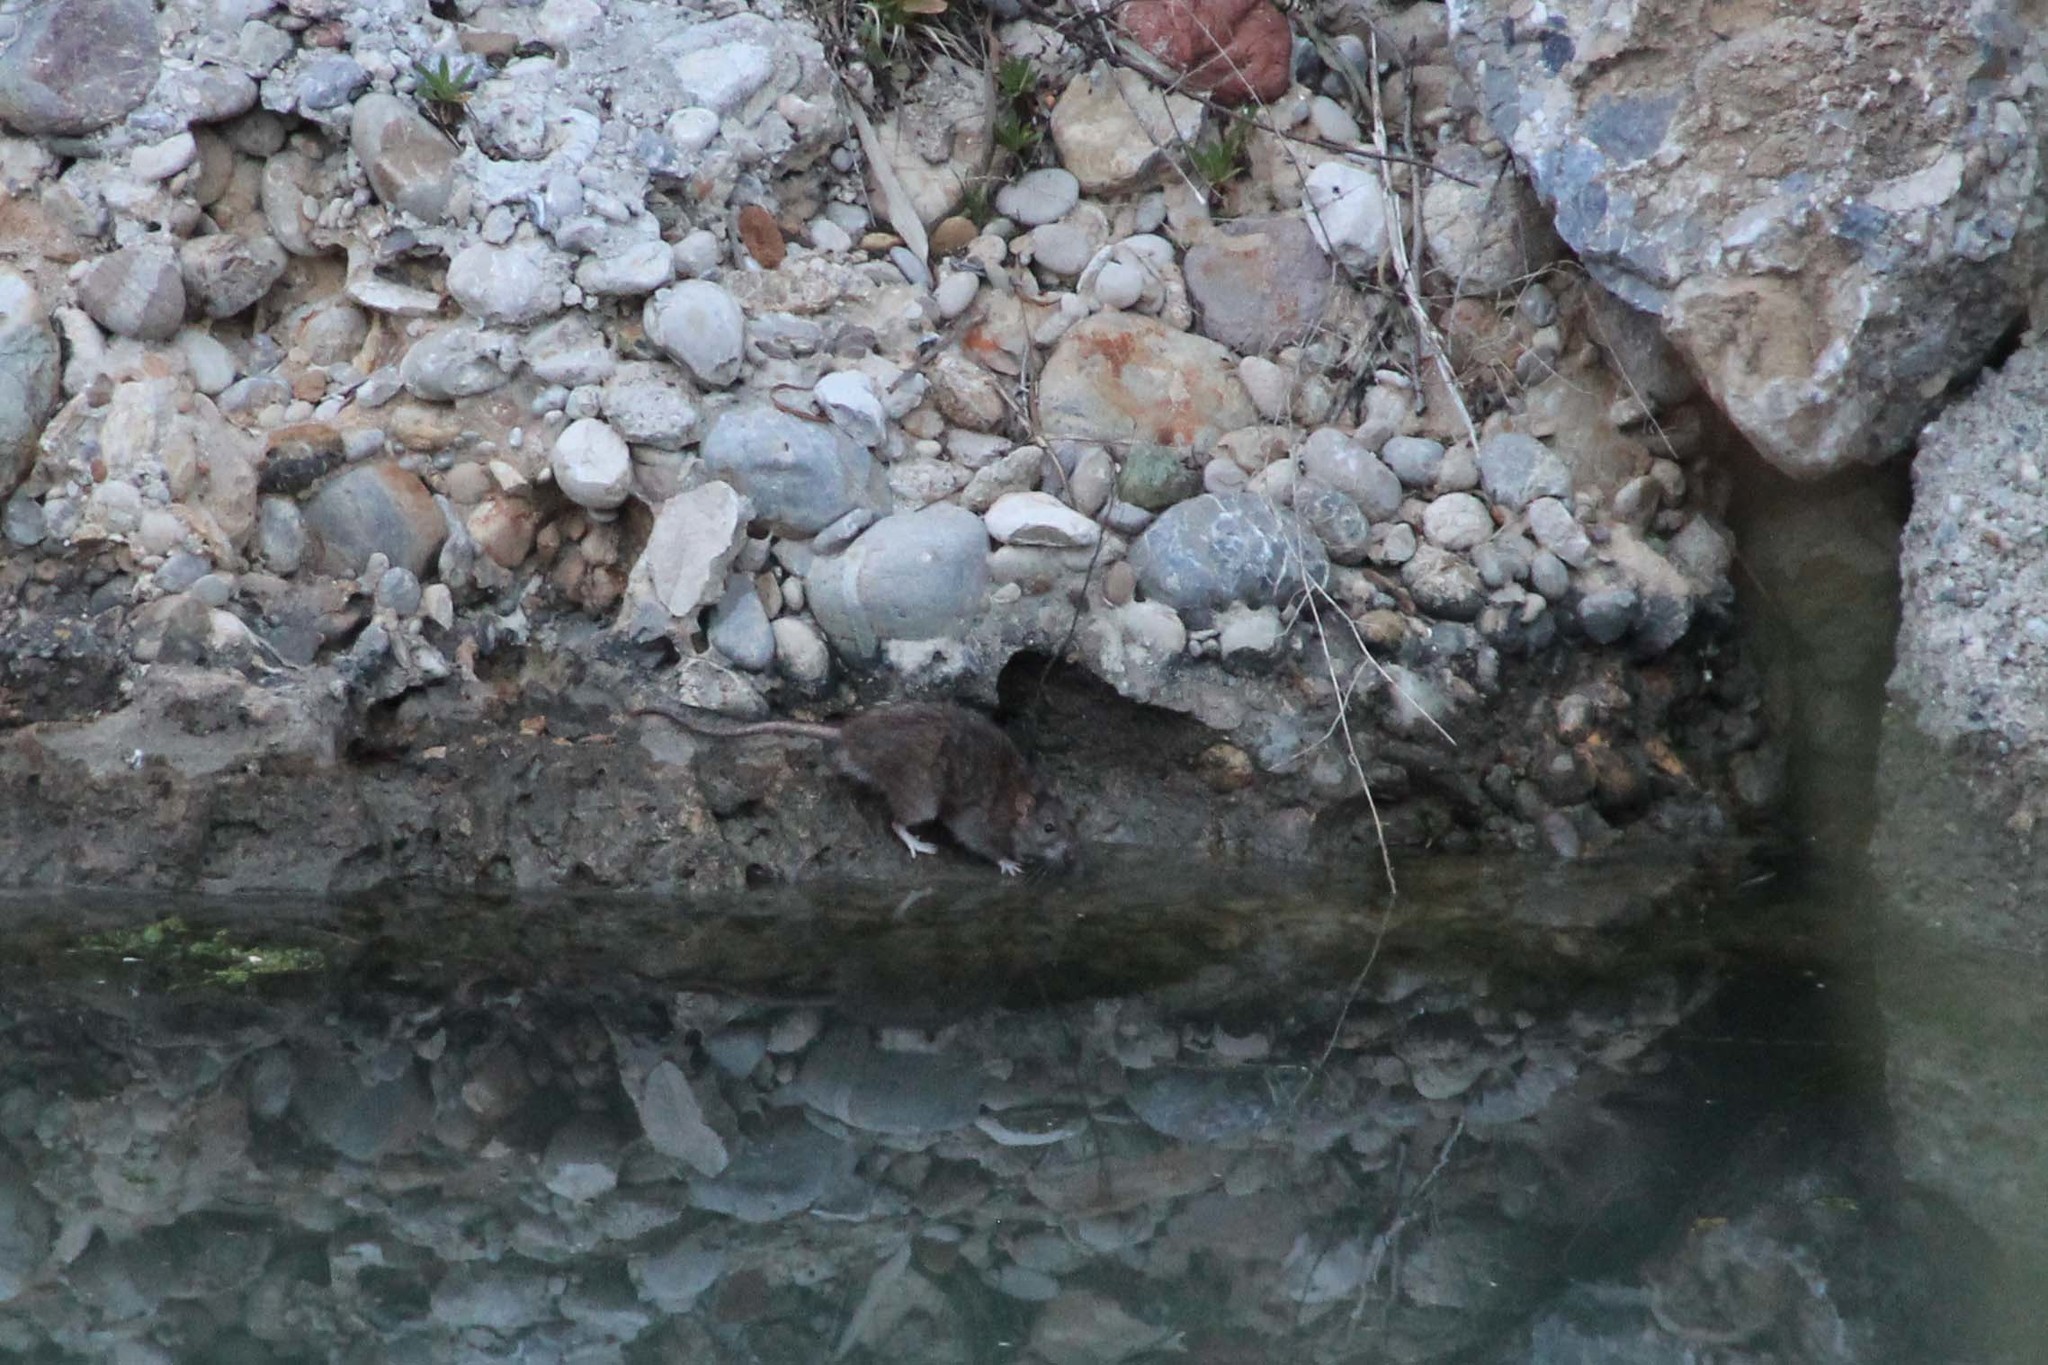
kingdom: Animalia
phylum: Chordata
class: Mammalia
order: Rodentia
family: Muridae
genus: Rattus
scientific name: Rattus norvegicus
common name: Brown rat
